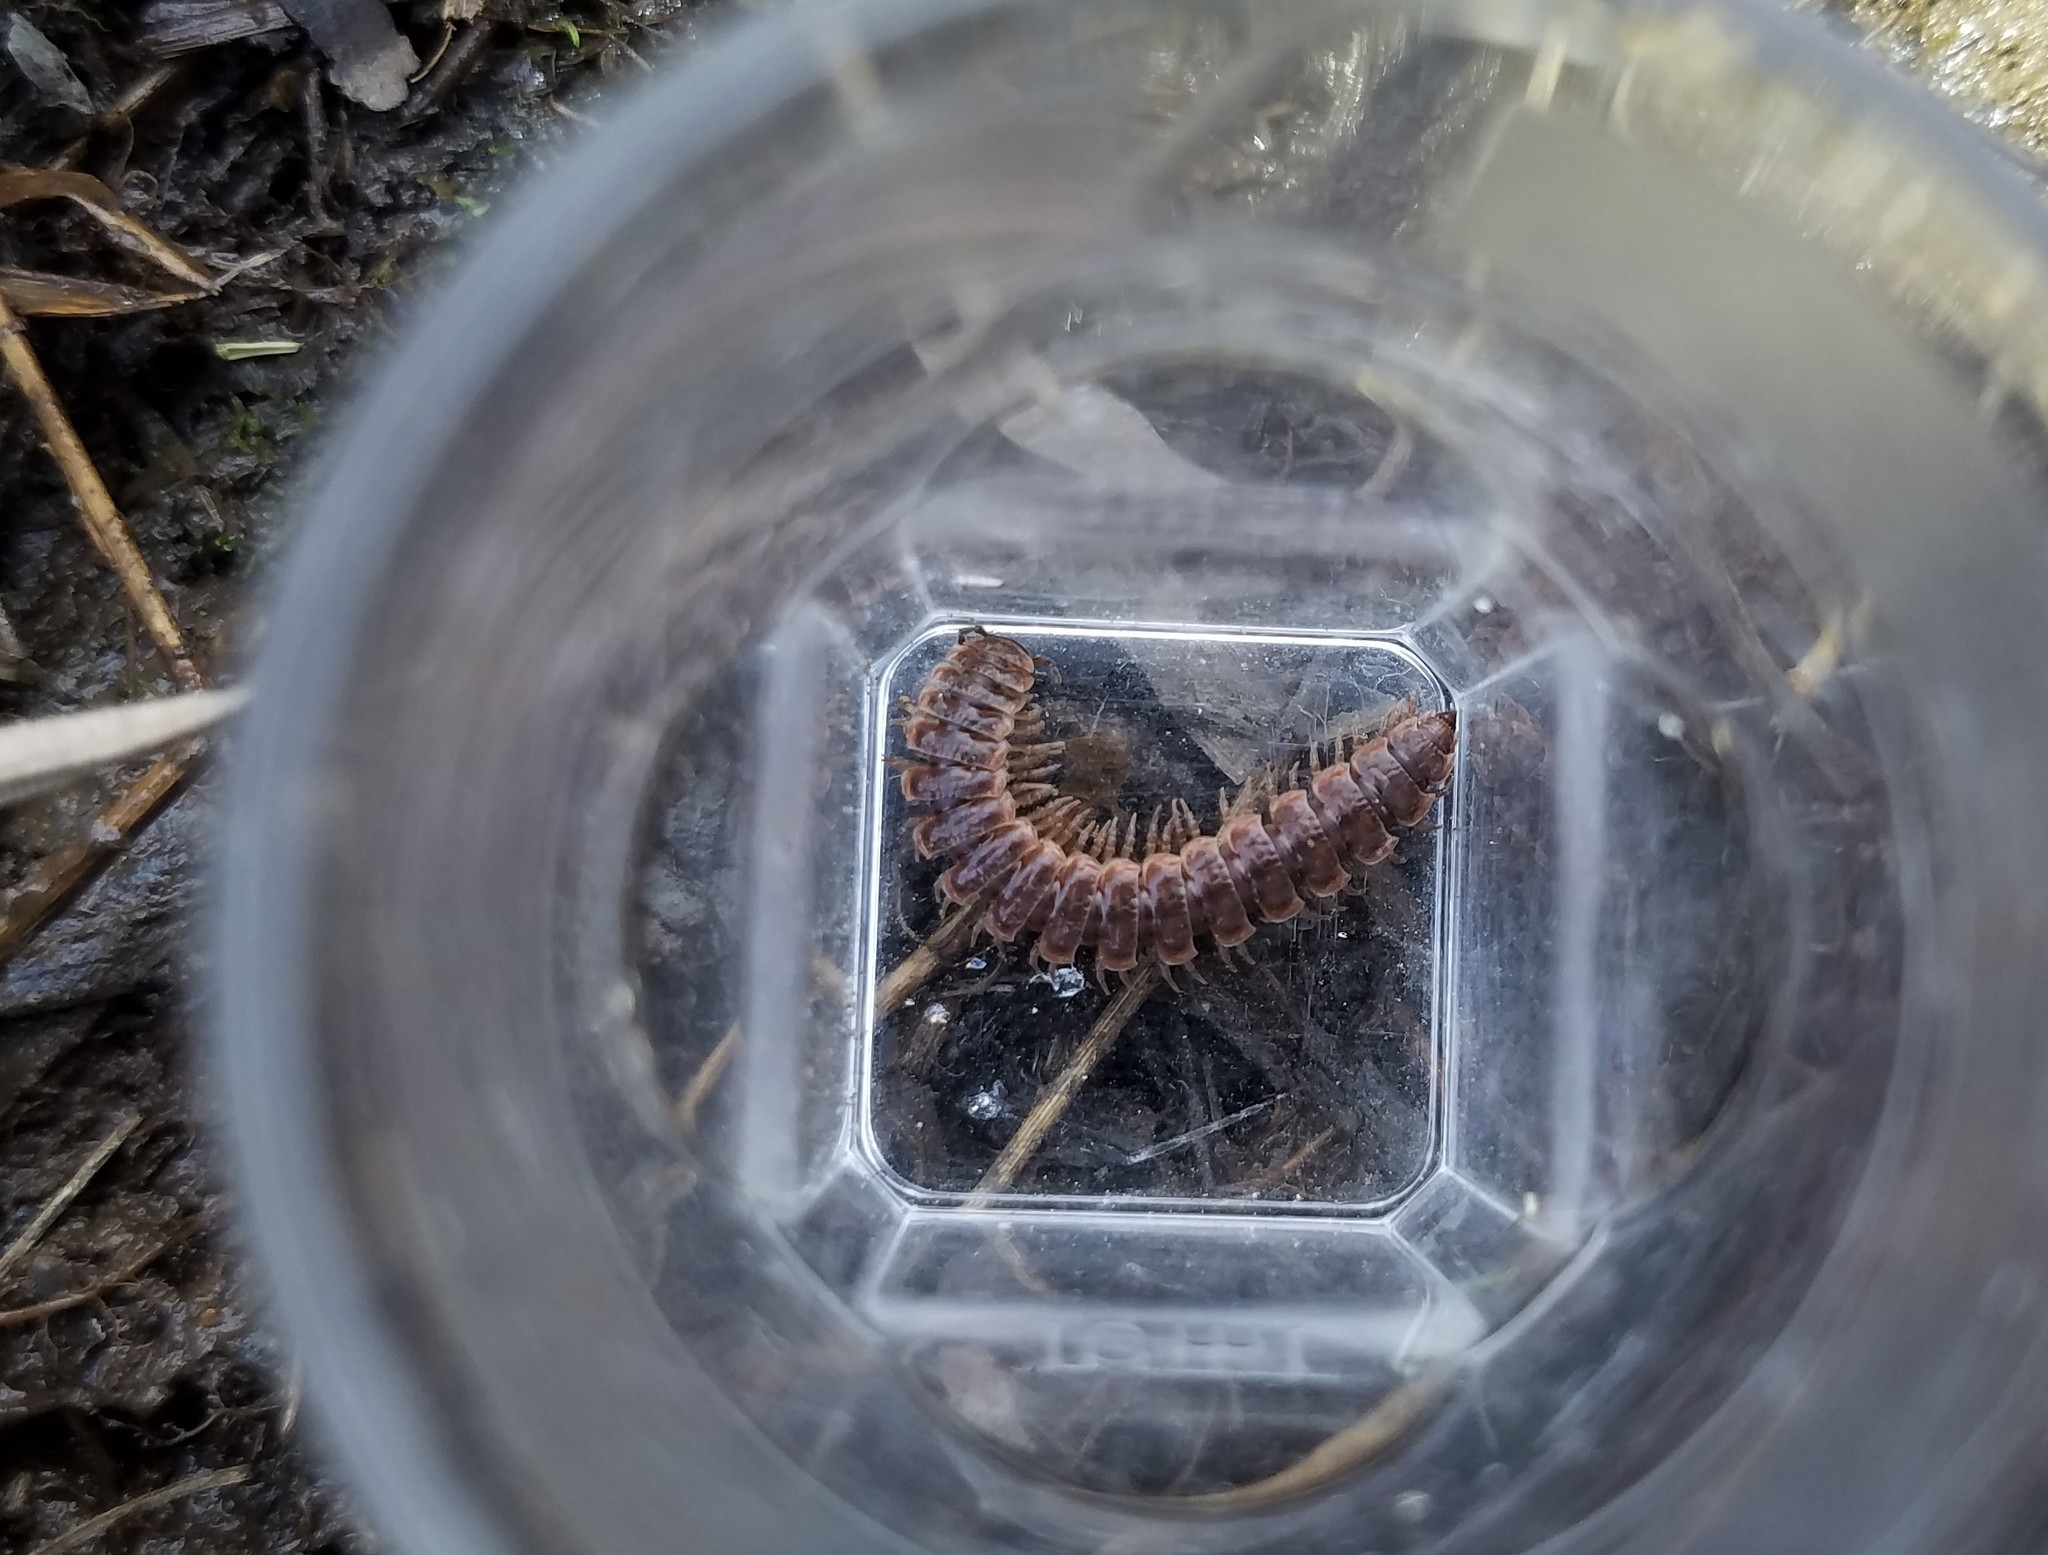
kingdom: Animalia
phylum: Arthropoda
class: Diplopoda
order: Polydesmida
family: Polydesmidae
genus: Pseudopolydesmus
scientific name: Pseudopolydesmus serratus
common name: Common pink flat-back millipede
